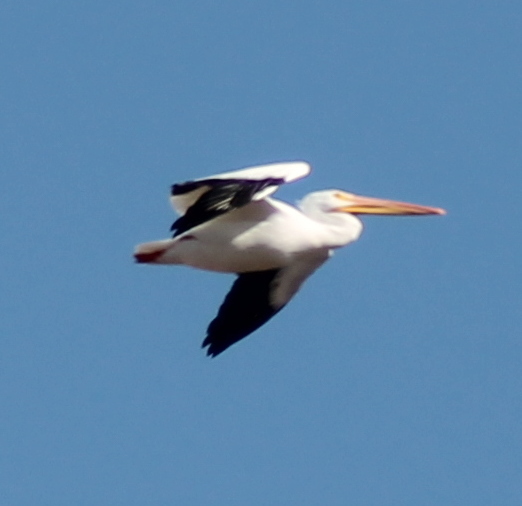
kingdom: Animalia
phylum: Chordata
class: Aves
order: Pelecaniformes
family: Pelecanidae
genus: Pelecanus
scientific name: Pelecanus erythrorhynchos
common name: American white pelican
